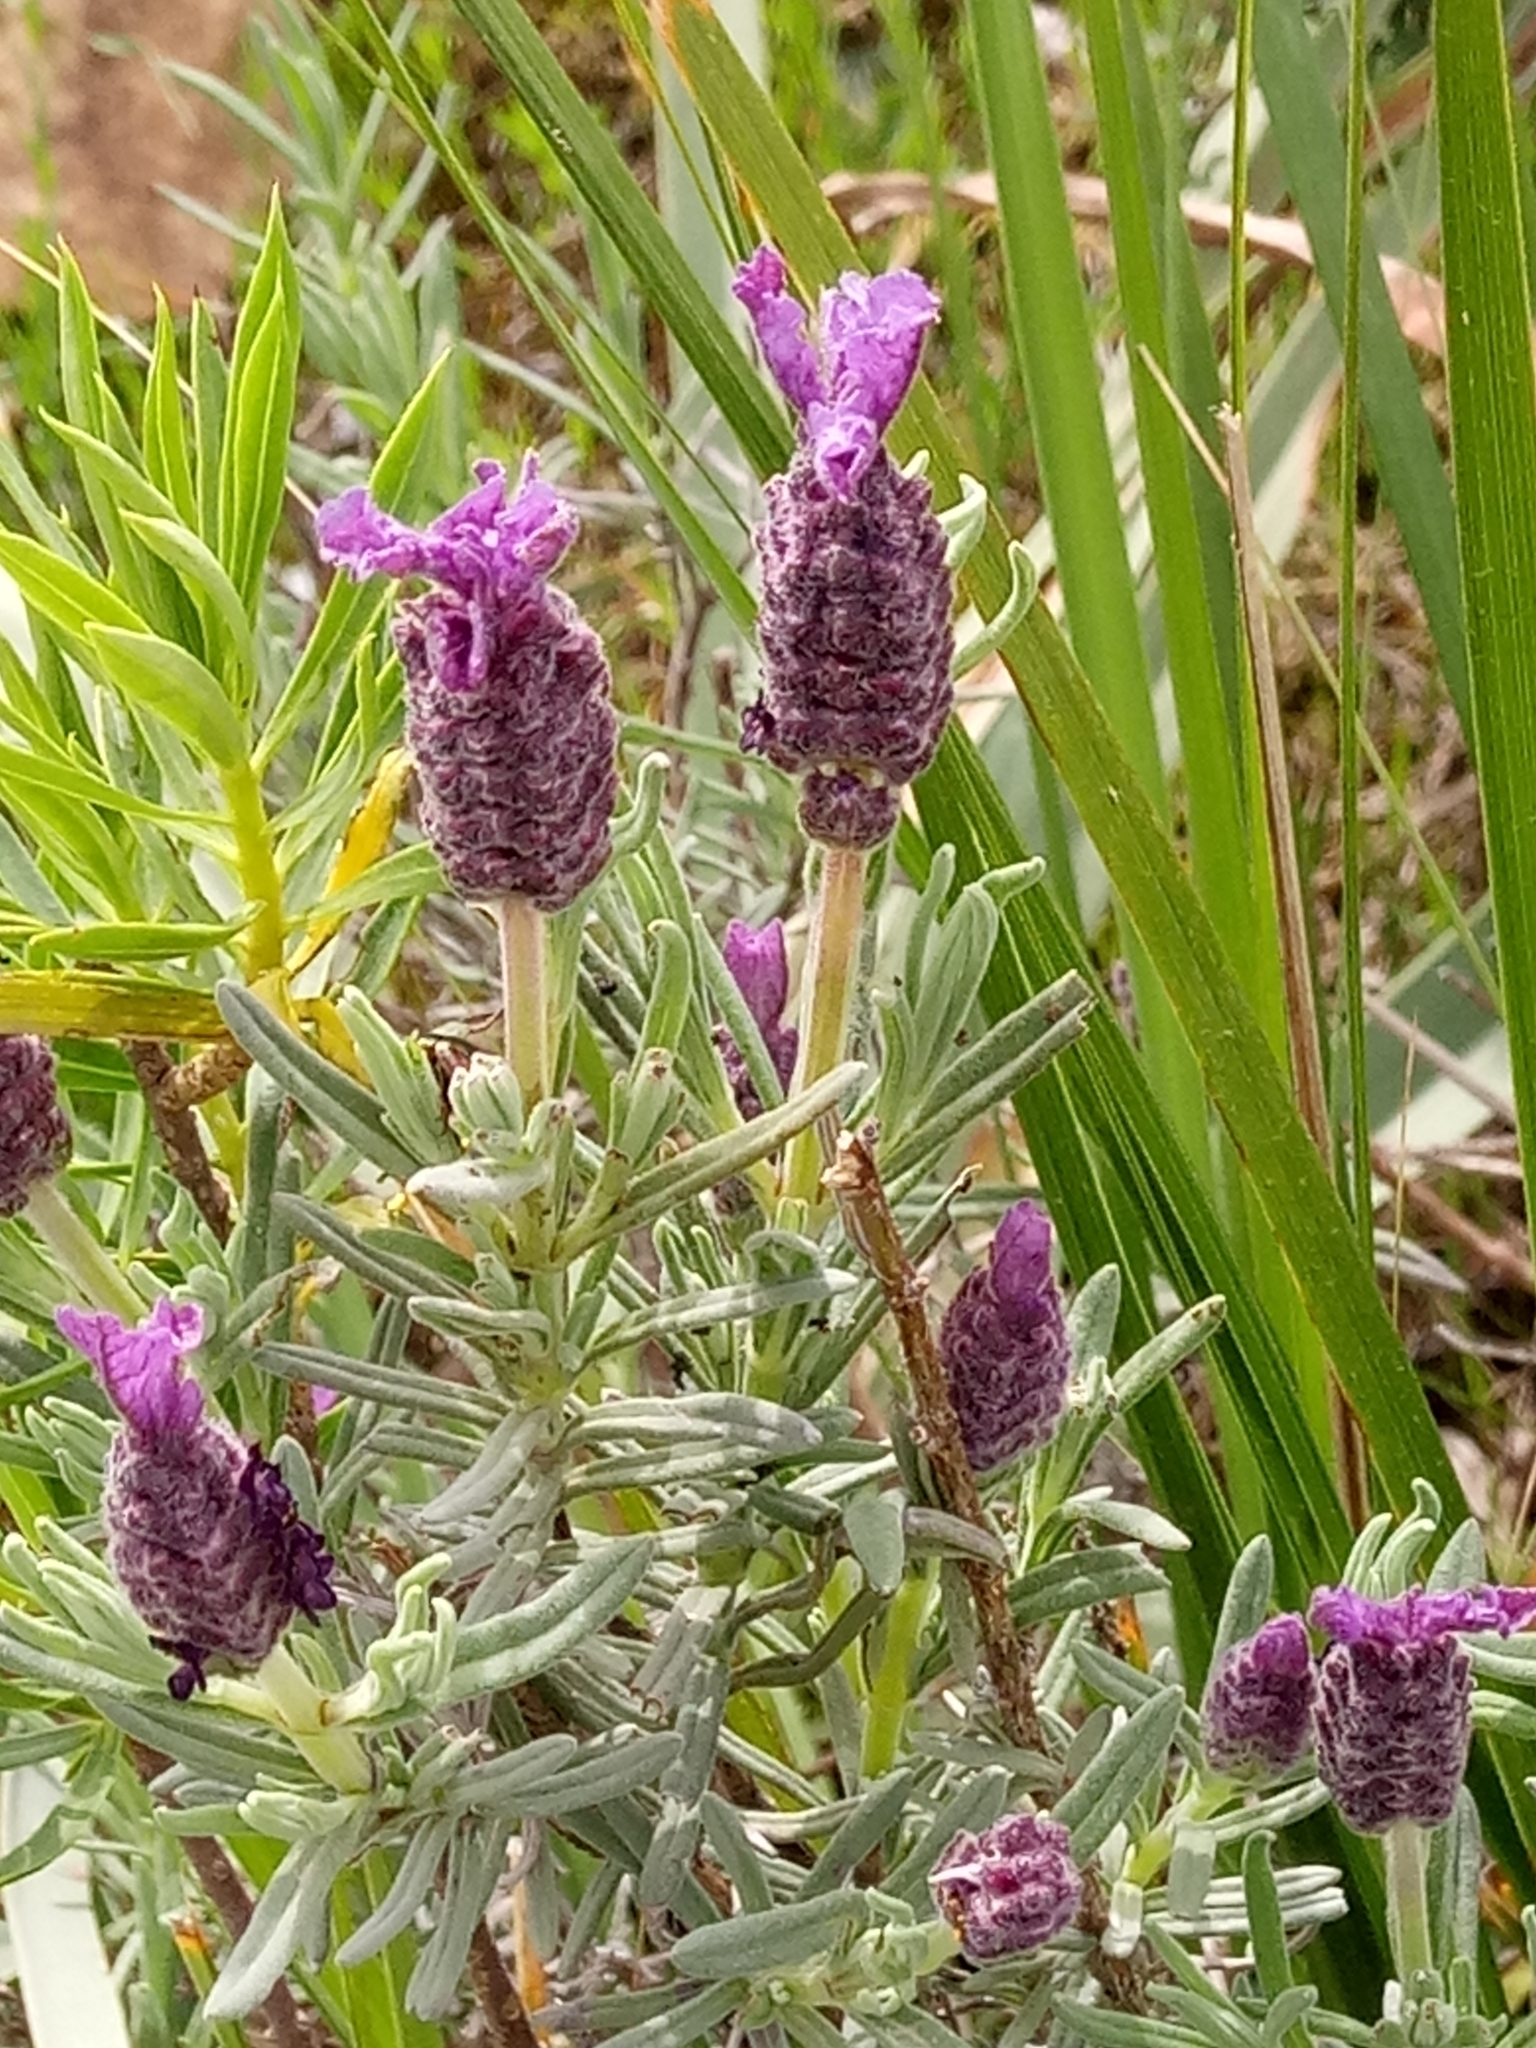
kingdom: Plantae
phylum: Tracheophyta
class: Magnoliopsida
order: Lamiales
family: Lamiaceae
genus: Lavandula
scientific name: Lavandula stoechas
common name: French lavender
